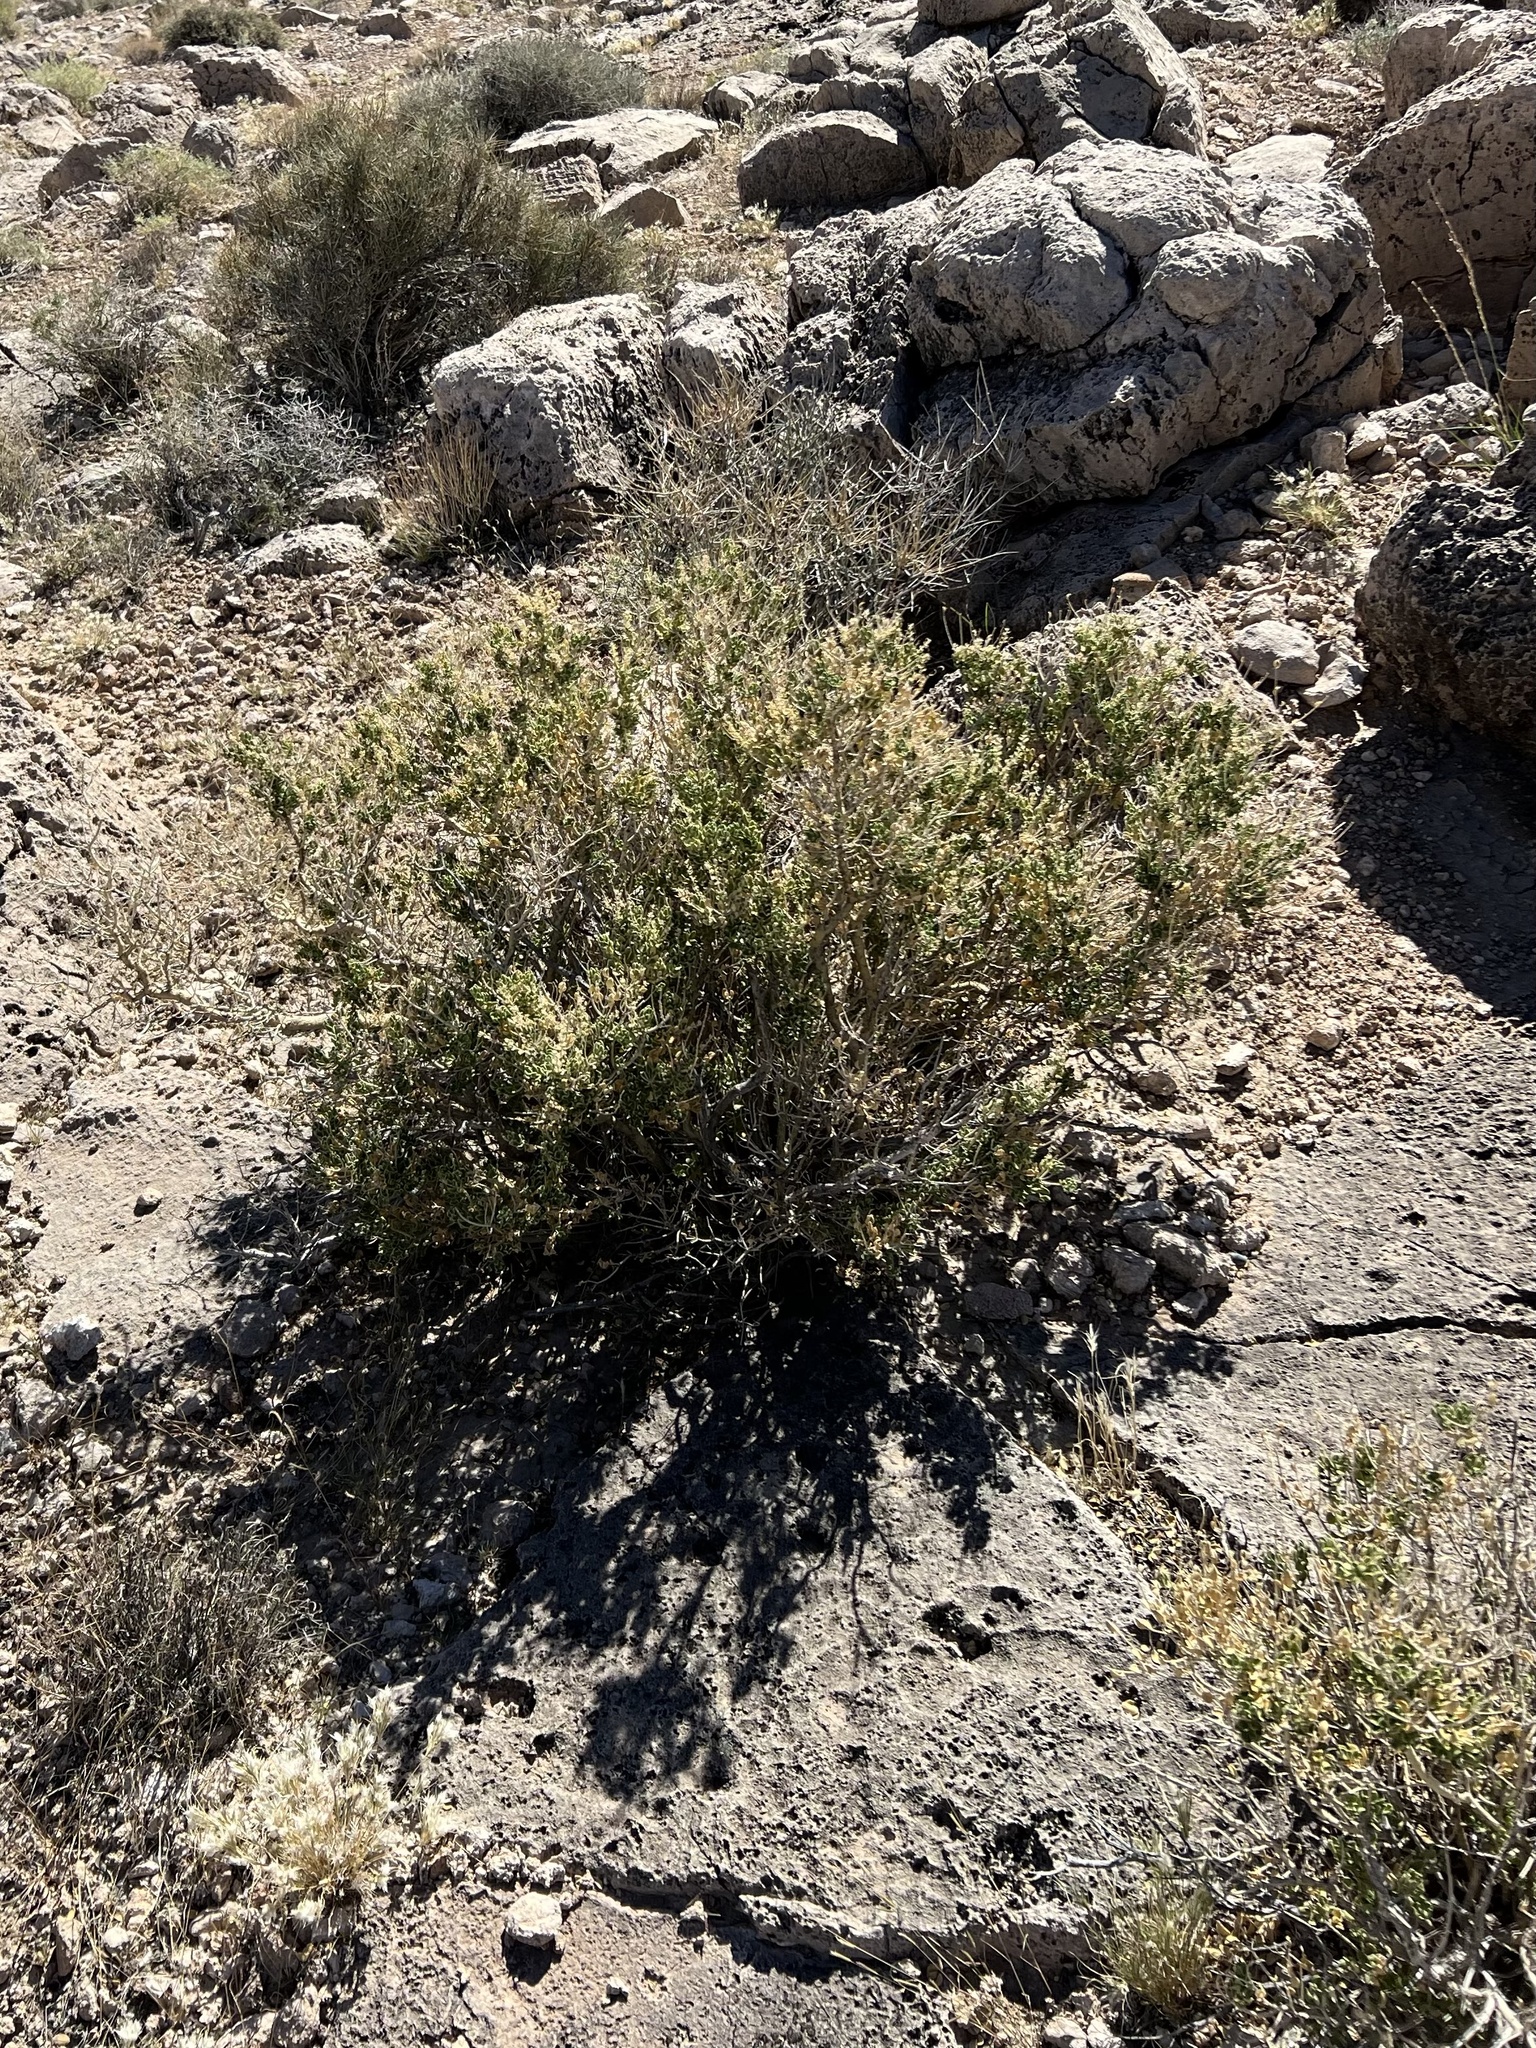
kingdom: Plantae
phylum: Tracheophyta
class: Magnoliopsida
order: Celastrales
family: Celastraceae
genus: Mortonia
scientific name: Mortonia utahensis
